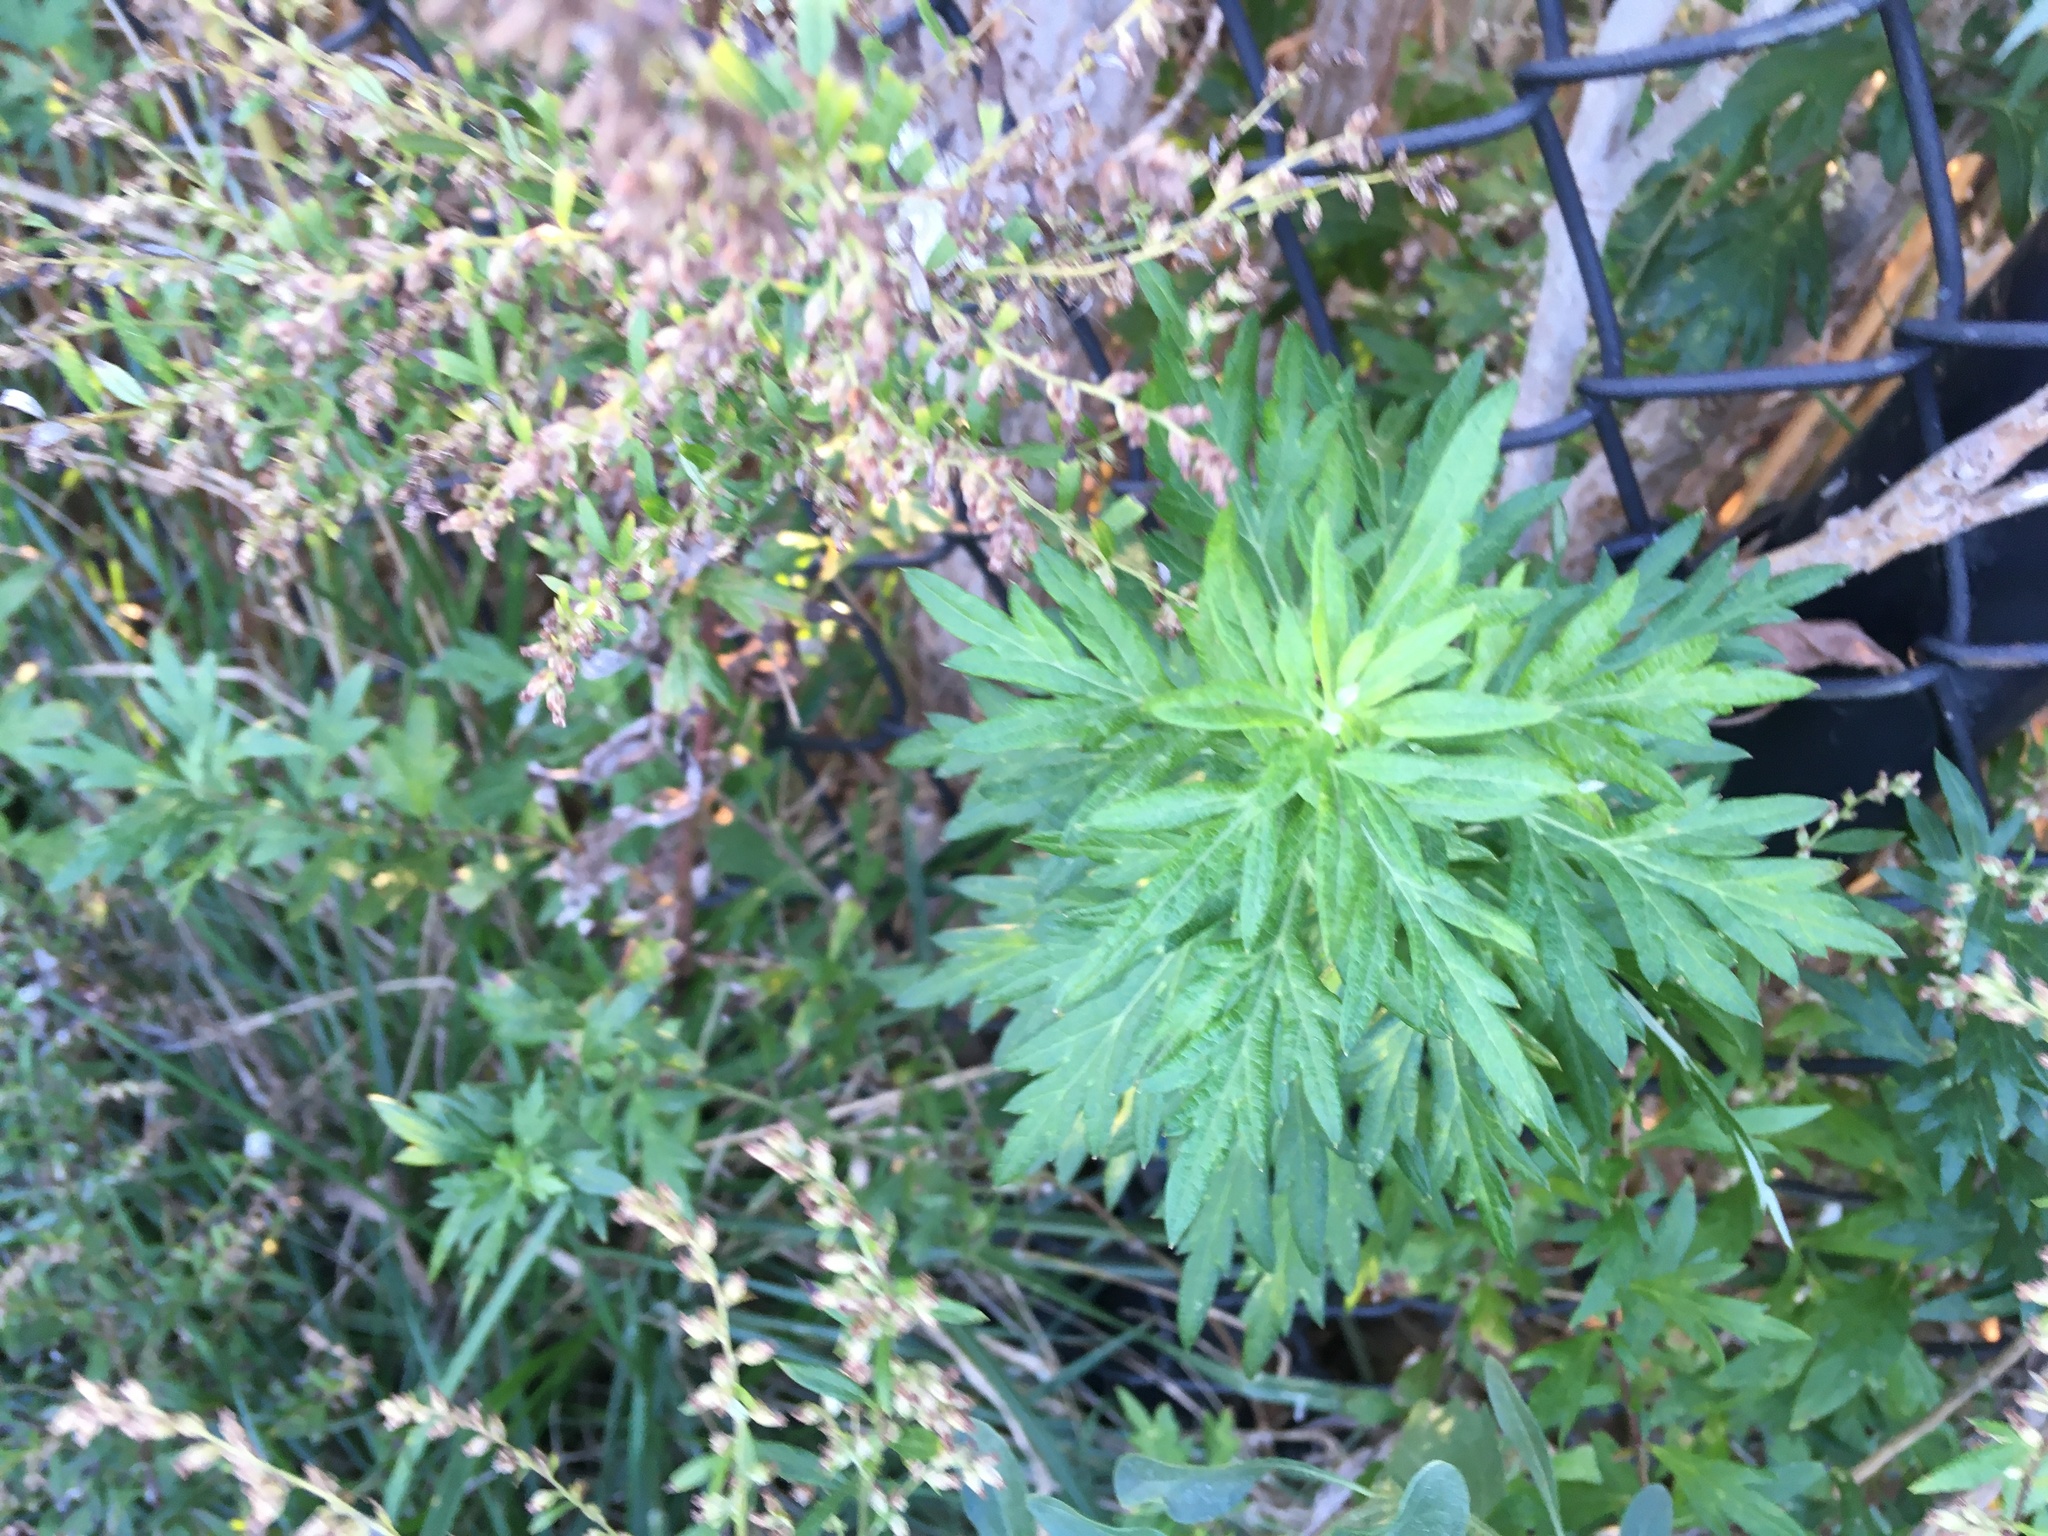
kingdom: Plantae
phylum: Tracheophyta
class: Magnoliopsida
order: Asterales
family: Asteraceae
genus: Artemisia
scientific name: Artemisia vulgaris
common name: Mugwort
